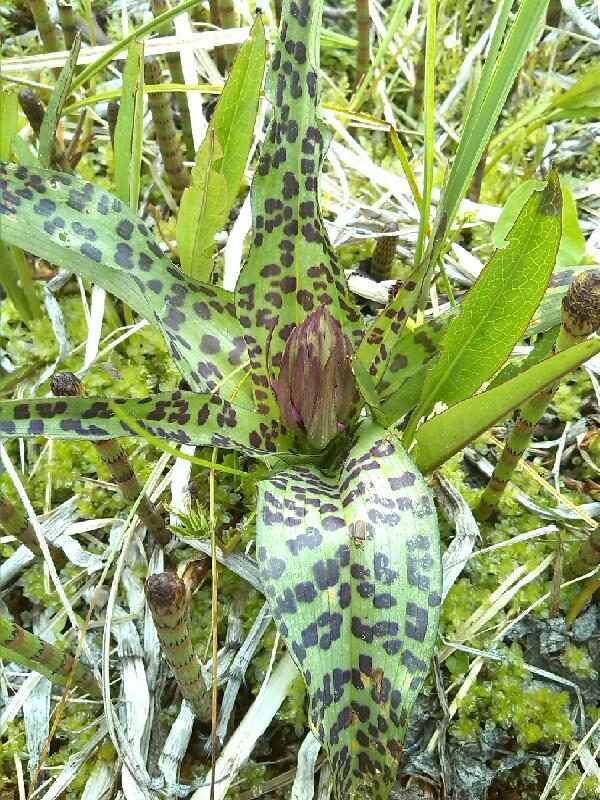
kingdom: Plantae
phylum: Tracheophyta
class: Liliopsida
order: Asparagales
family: Orchidaceae
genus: Dactylorhiza
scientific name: Dactylorhiza majalis
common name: Marsh orchid
